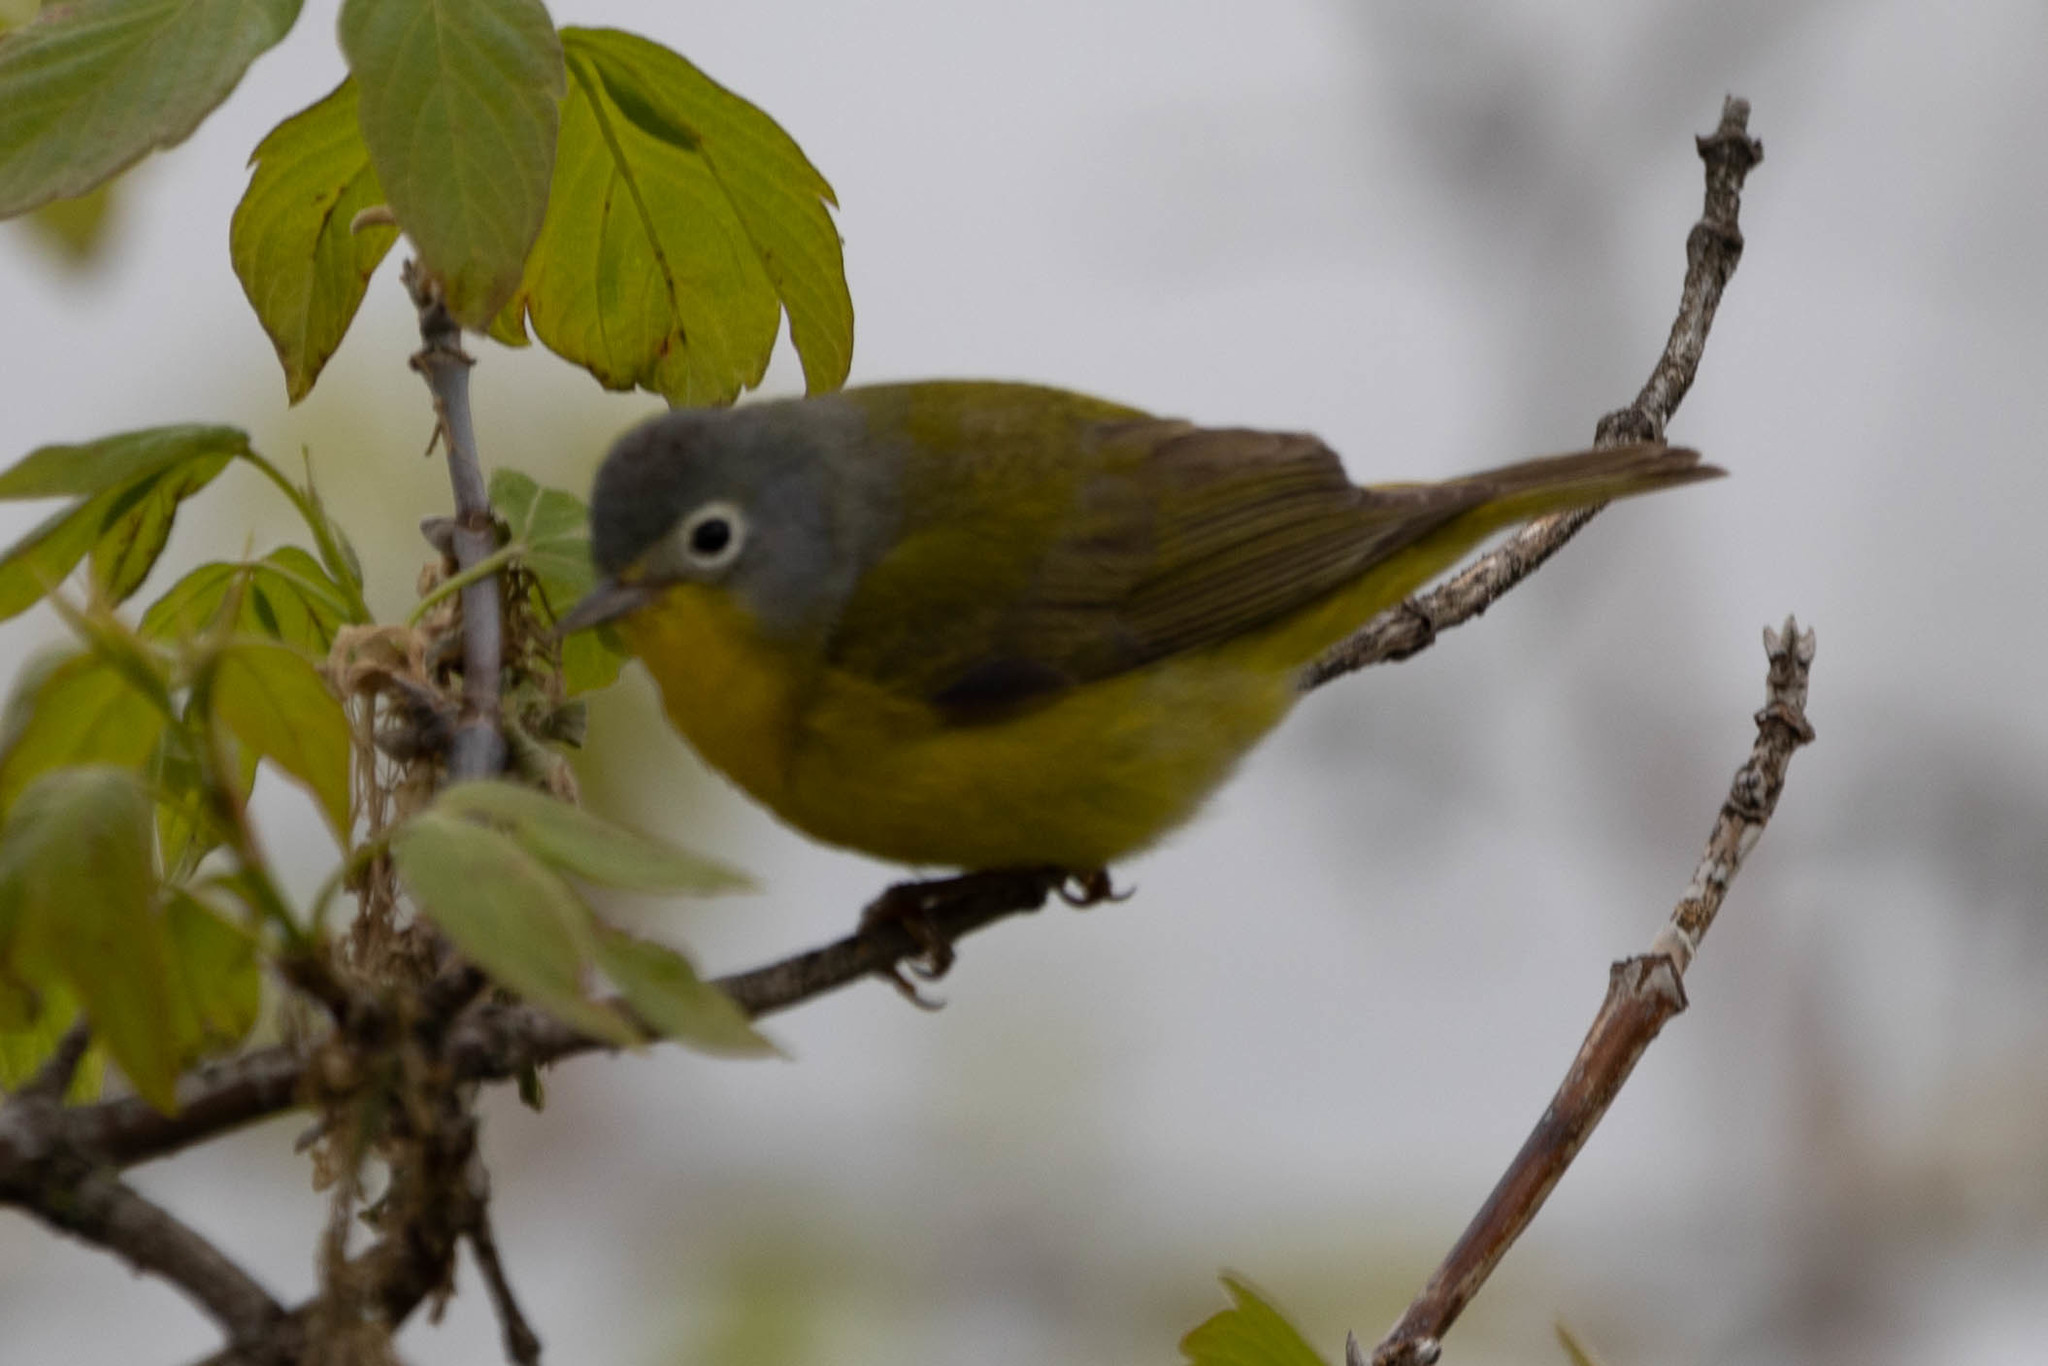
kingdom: Animalia
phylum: Chordata
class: Aves
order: Passeriformes
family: Parulidae
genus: Leiothlypis
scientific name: Leiothlypis ruficapilla
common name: Nashville warbler
